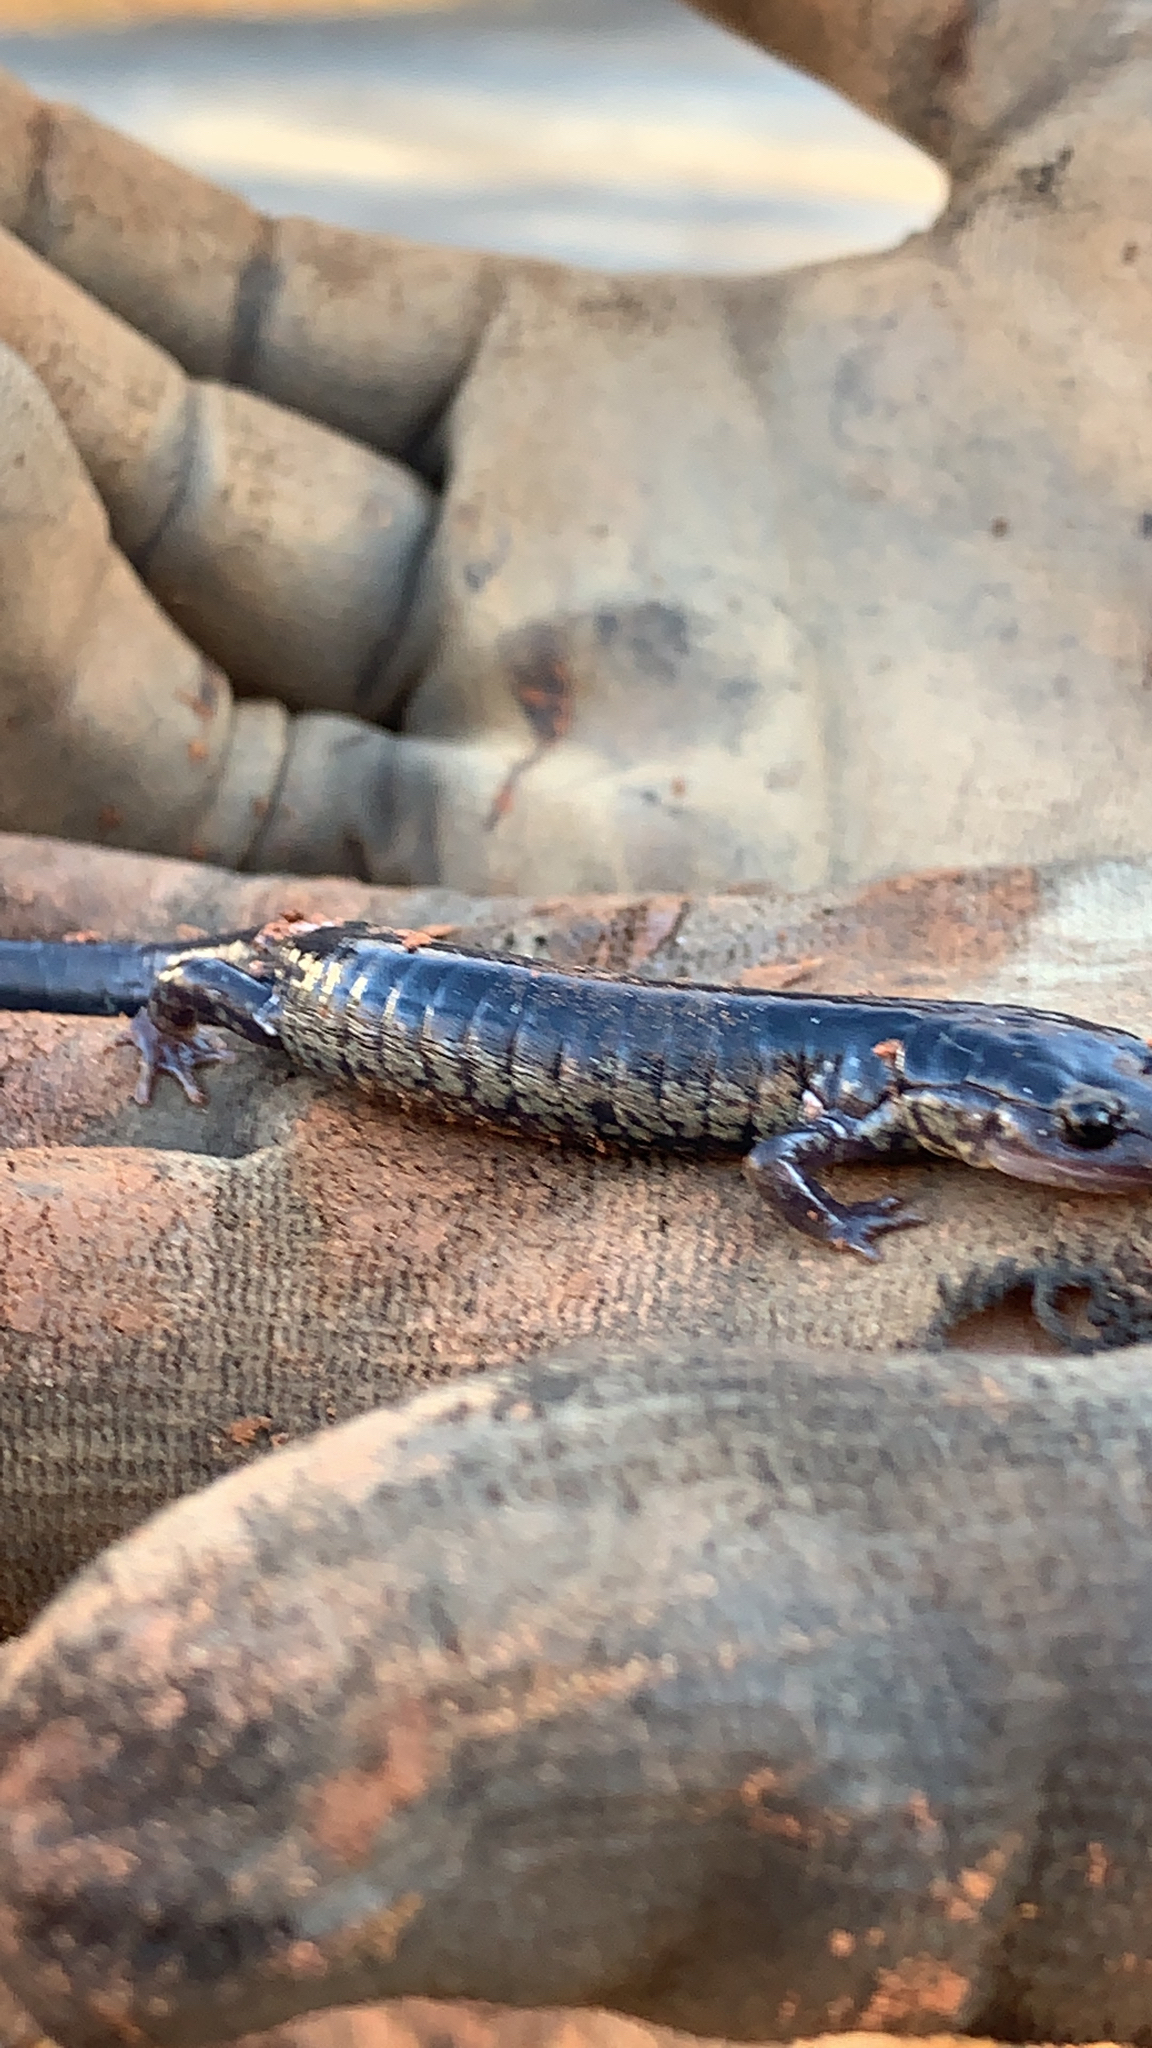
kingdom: Animalia
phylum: Chordata
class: Amphibia
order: Caudata
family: Plethodontidae
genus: Plethodon
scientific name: Plethodon glutinosus
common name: Northern slimy salamander
